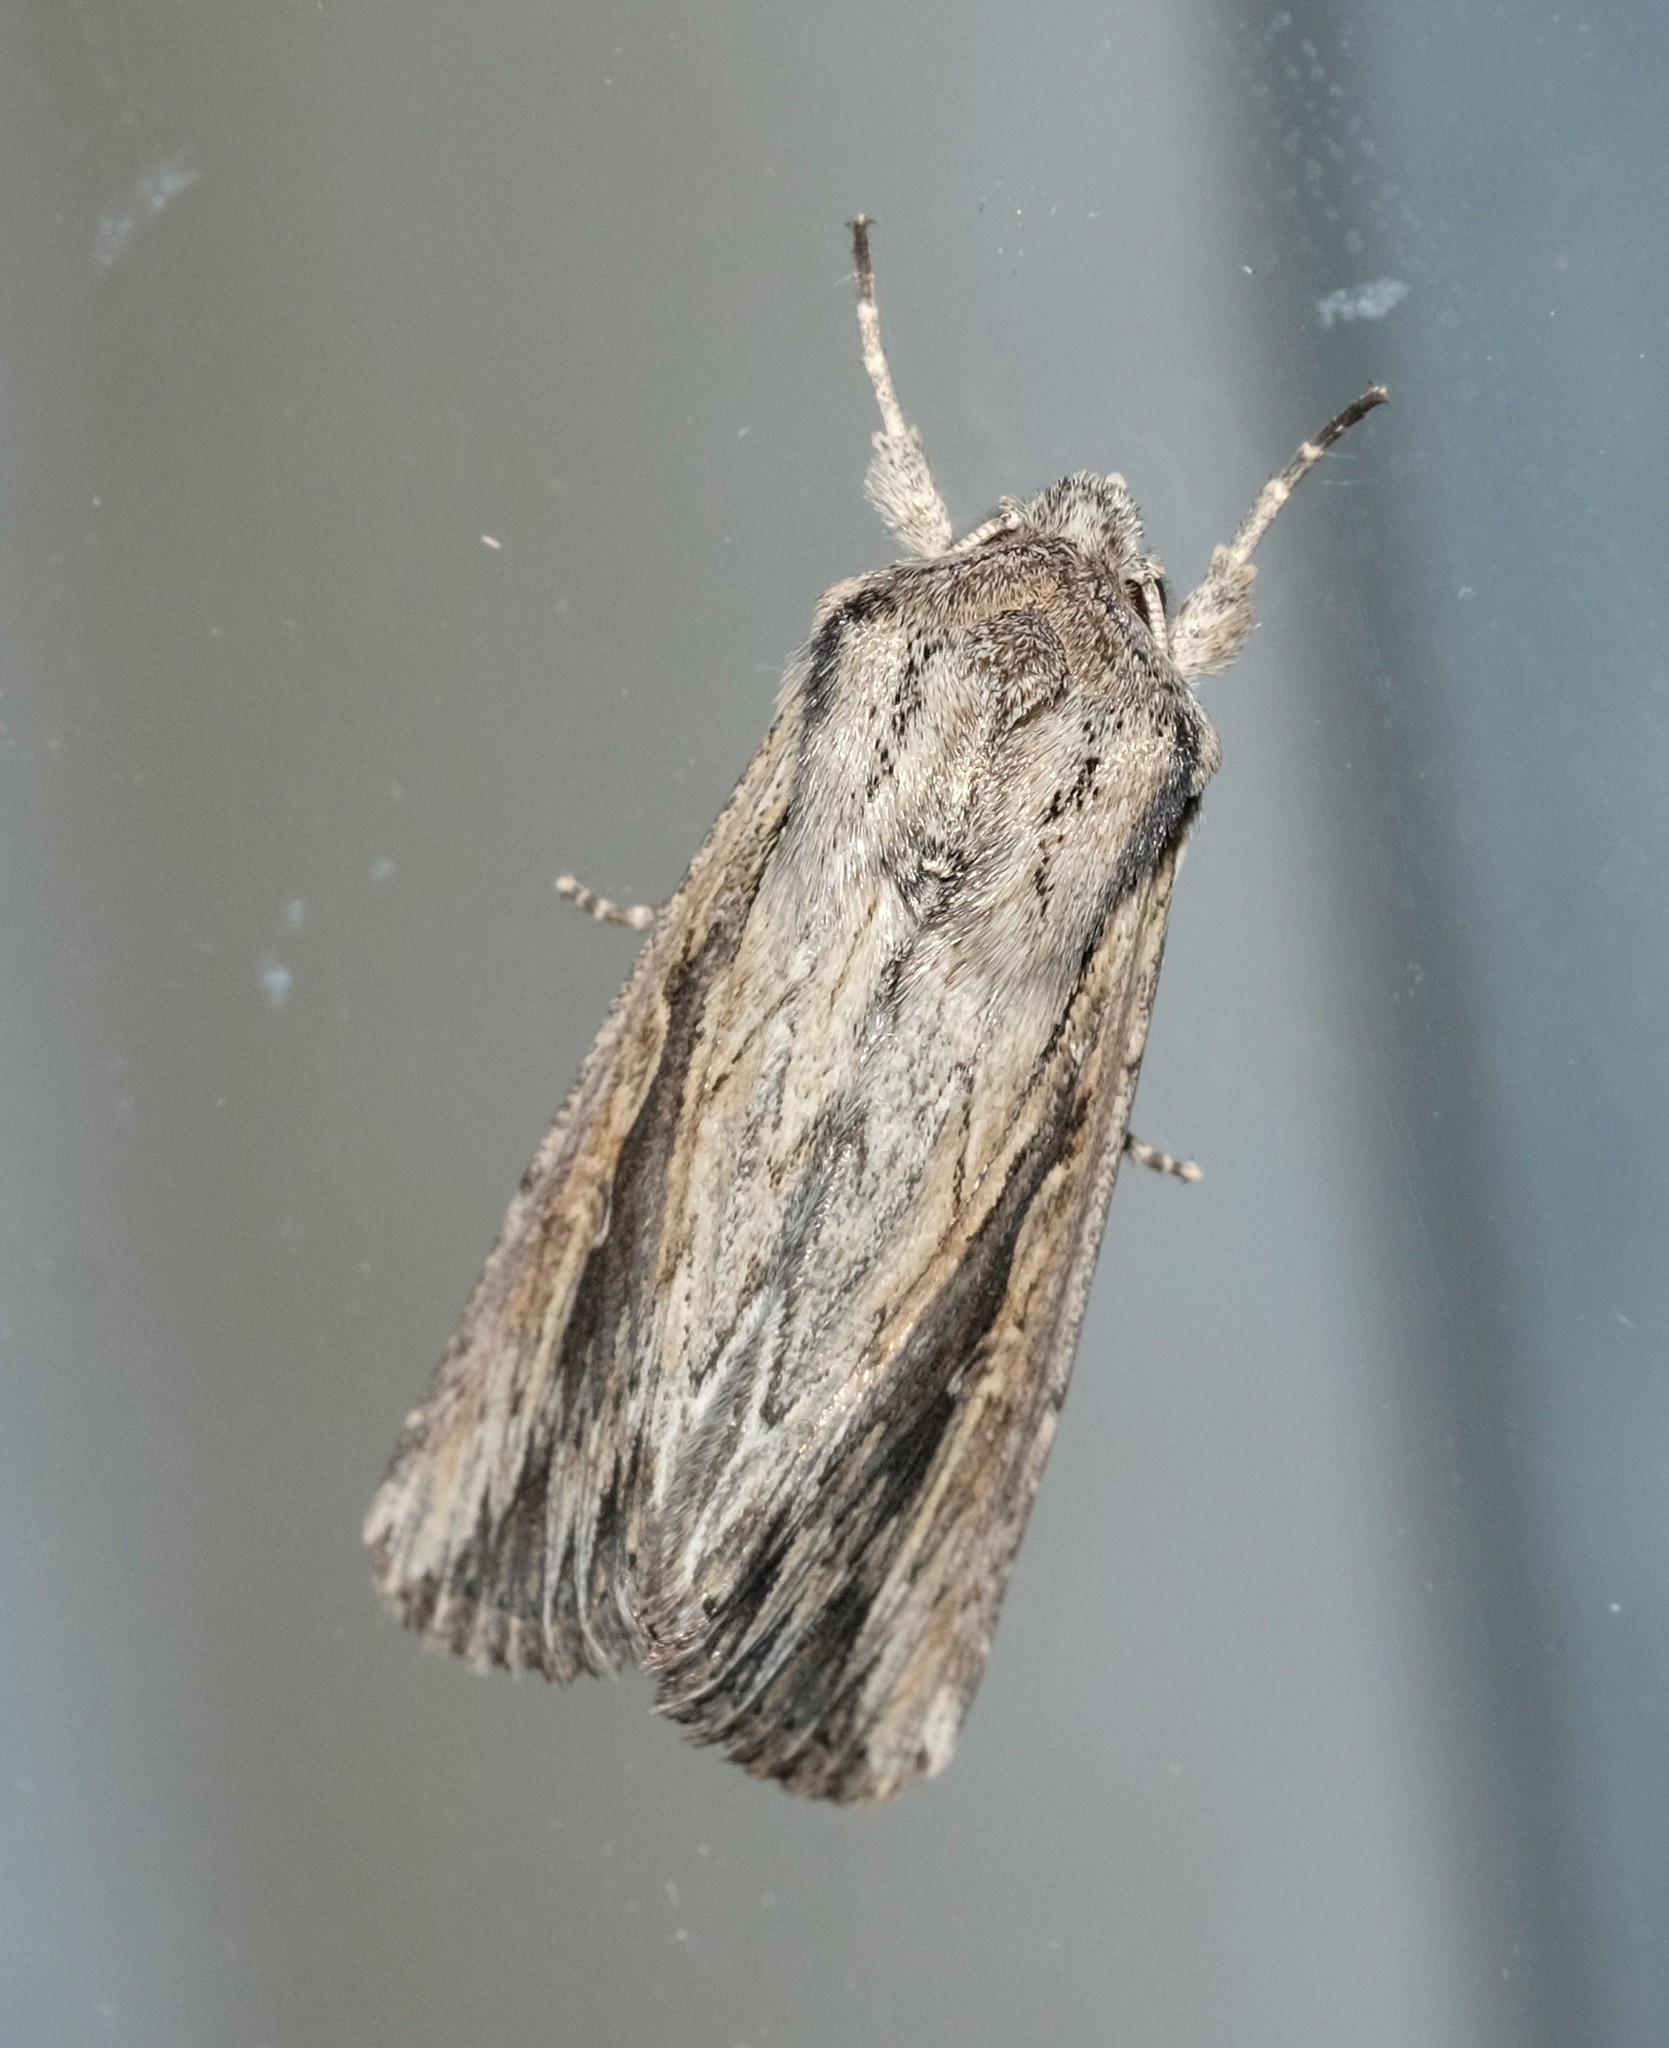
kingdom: Animalia
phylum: Arthropoda
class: Insecta
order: Lepidoptera
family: Noctuidae
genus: Persectania
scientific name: Persectania ewingii
